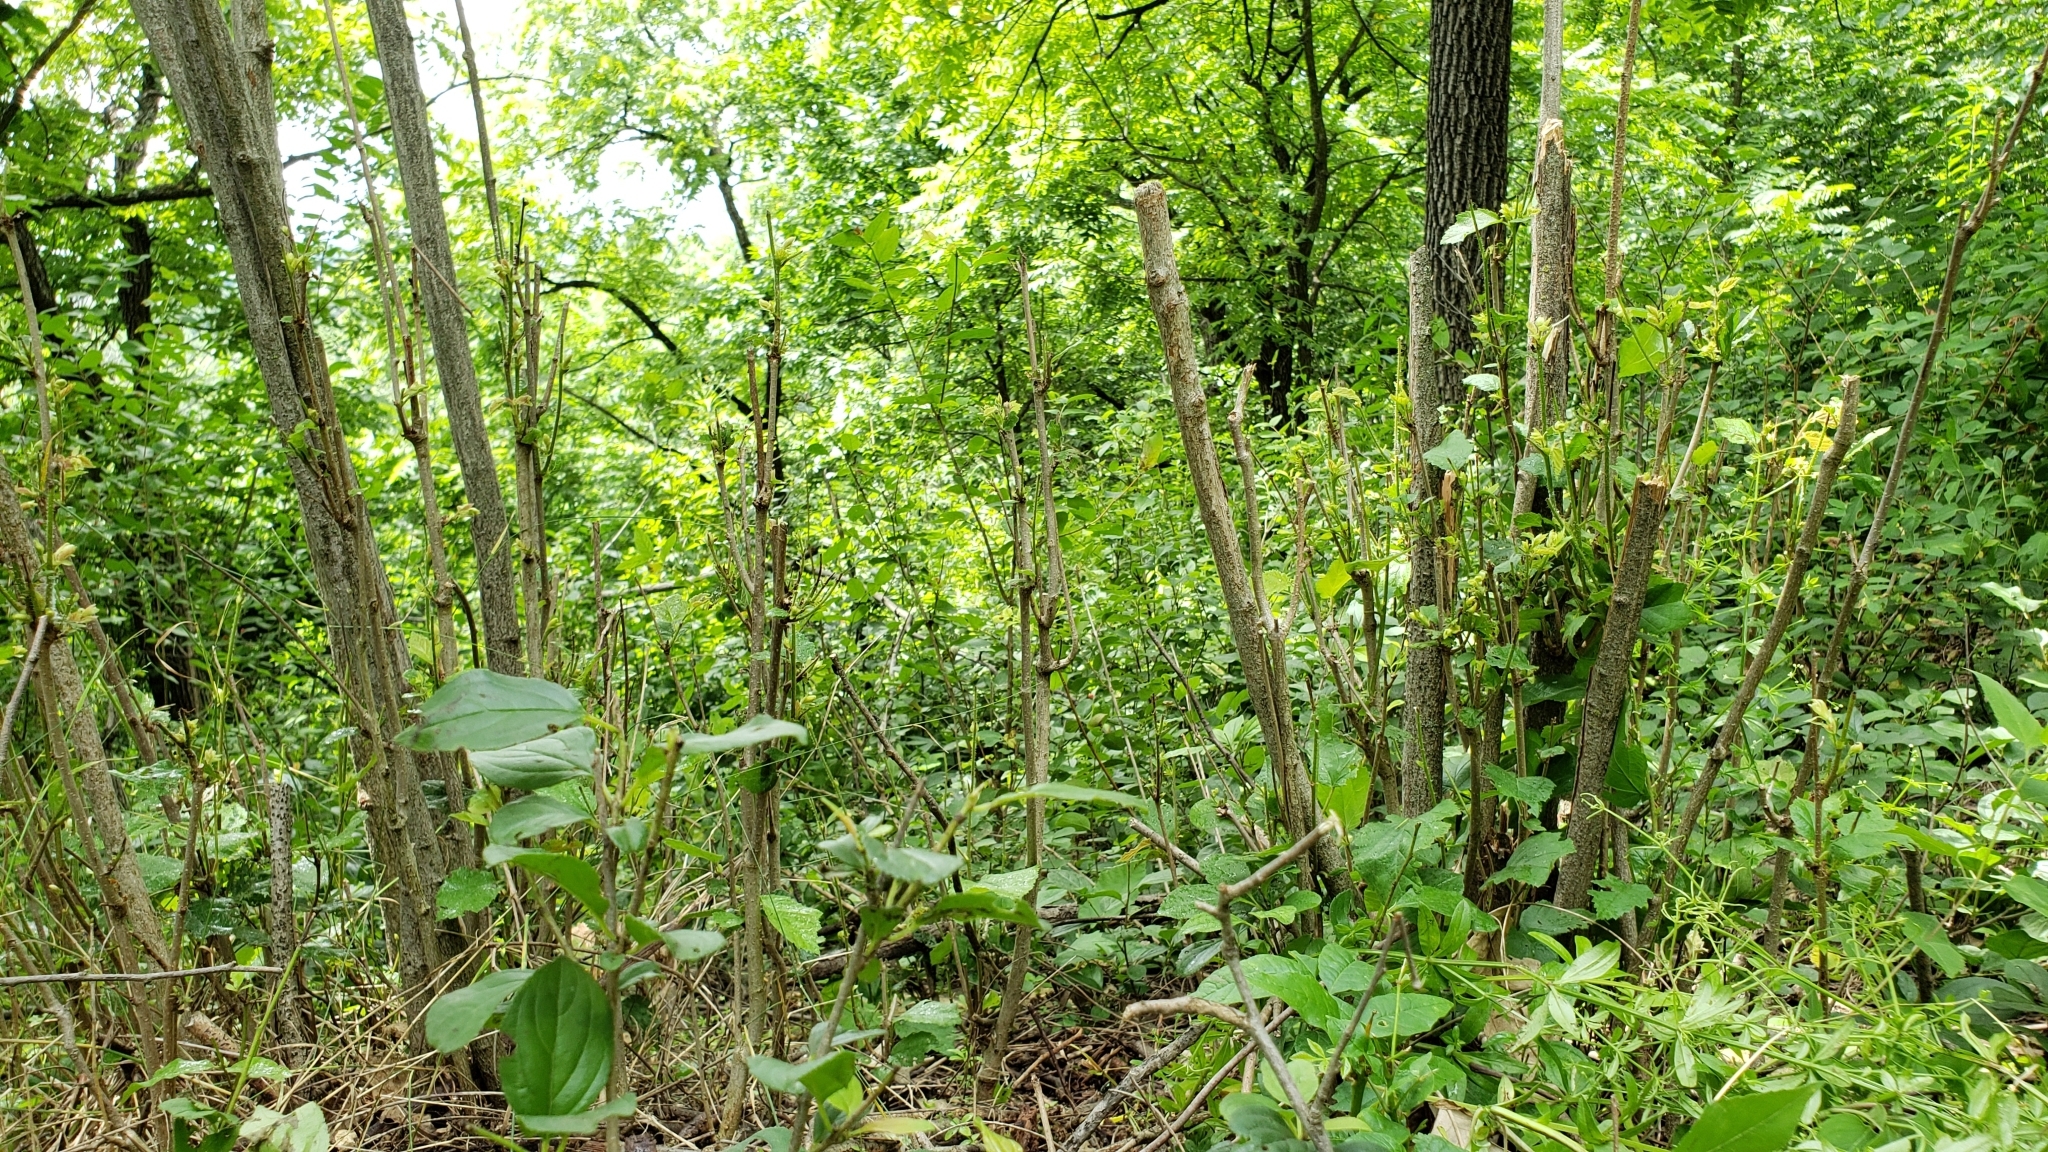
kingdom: Plantae
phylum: Tracheophyta
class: Magnoliopsida
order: Fagales
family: Betulaceae
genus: Corylus
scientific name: Corylus americana
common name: American hazel
